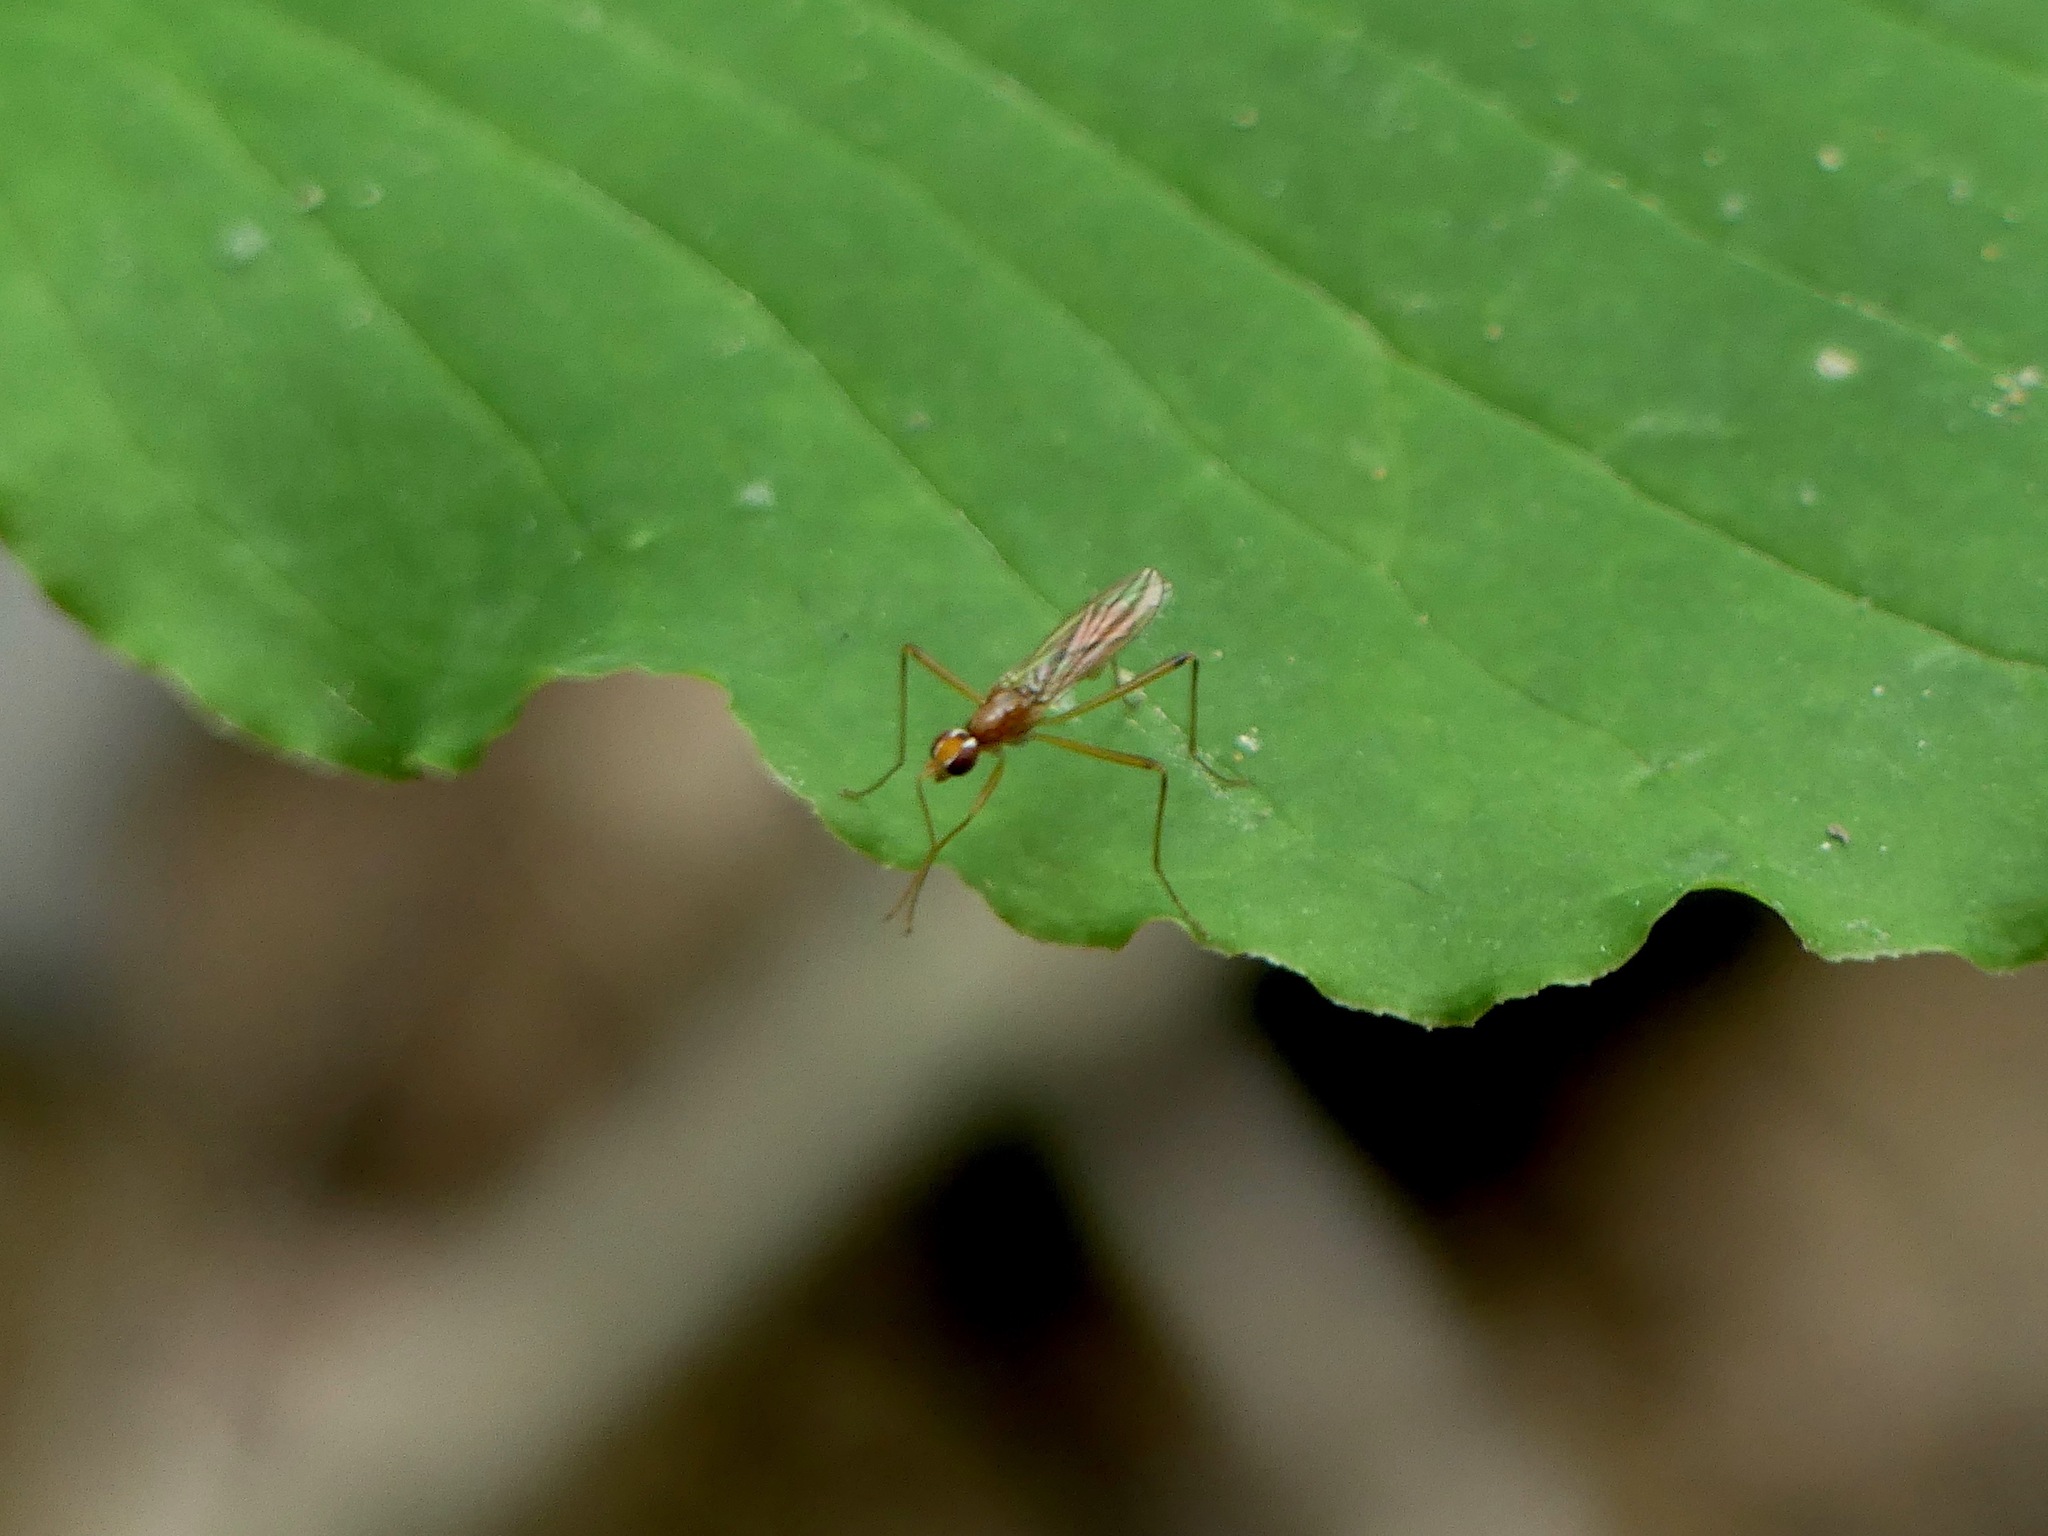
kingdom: Animalia
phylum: Arthropoda
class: Insecta
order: Diptera
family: Micropezidae
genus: Compsobata
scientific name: Compsobata univitta
